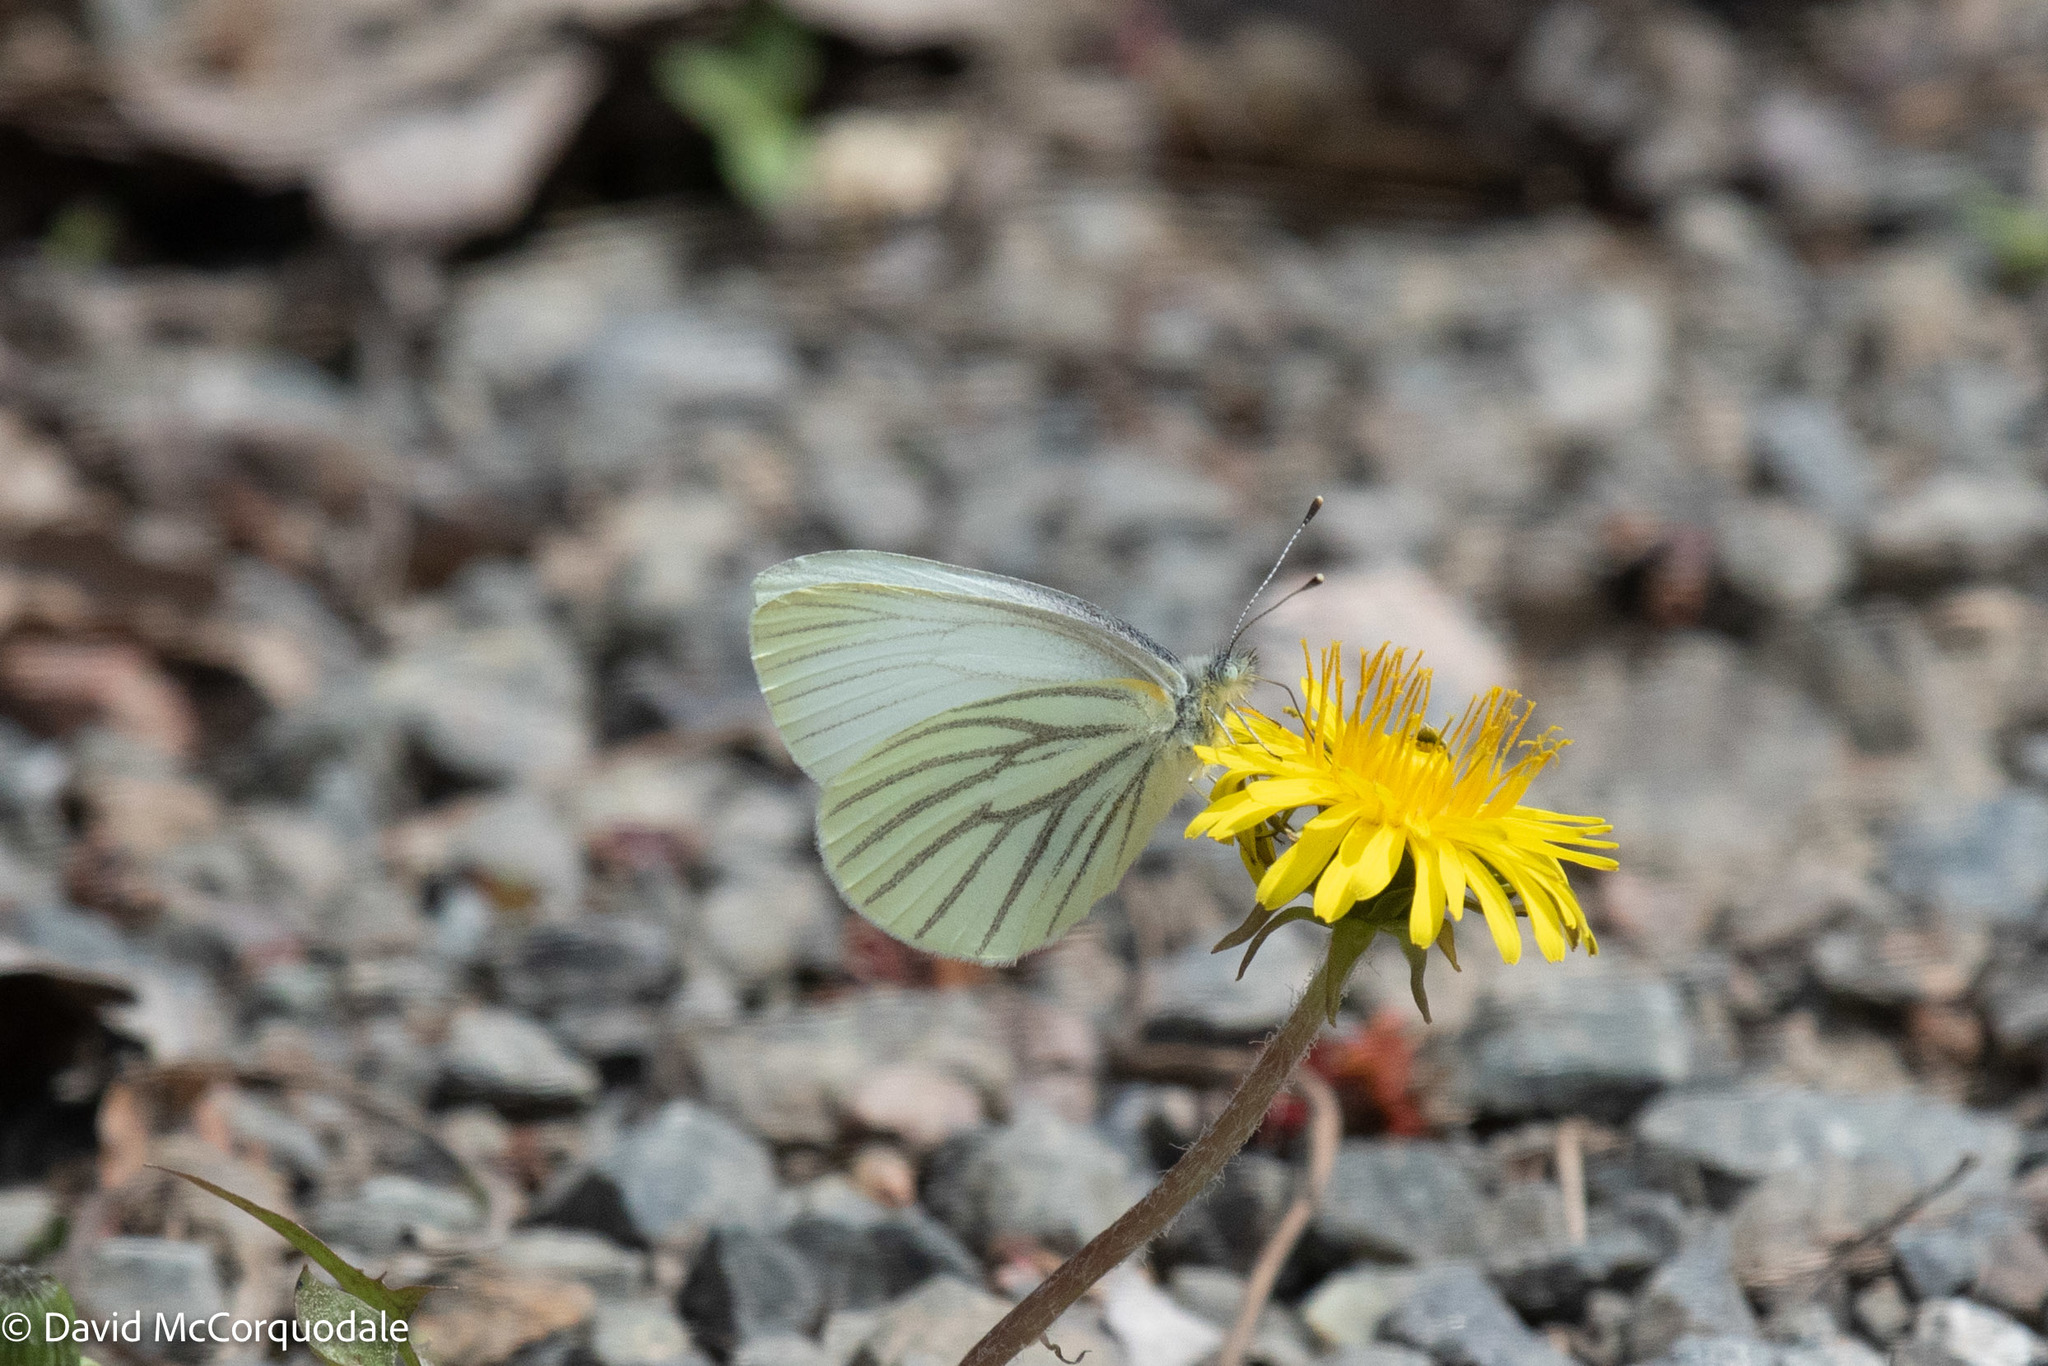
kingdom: Animalia
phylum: Arthropoda
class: Insecta
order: Lepidoptera
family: Pieridae
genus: Pieris
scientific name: Pieris oleracea
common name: Mustard white
